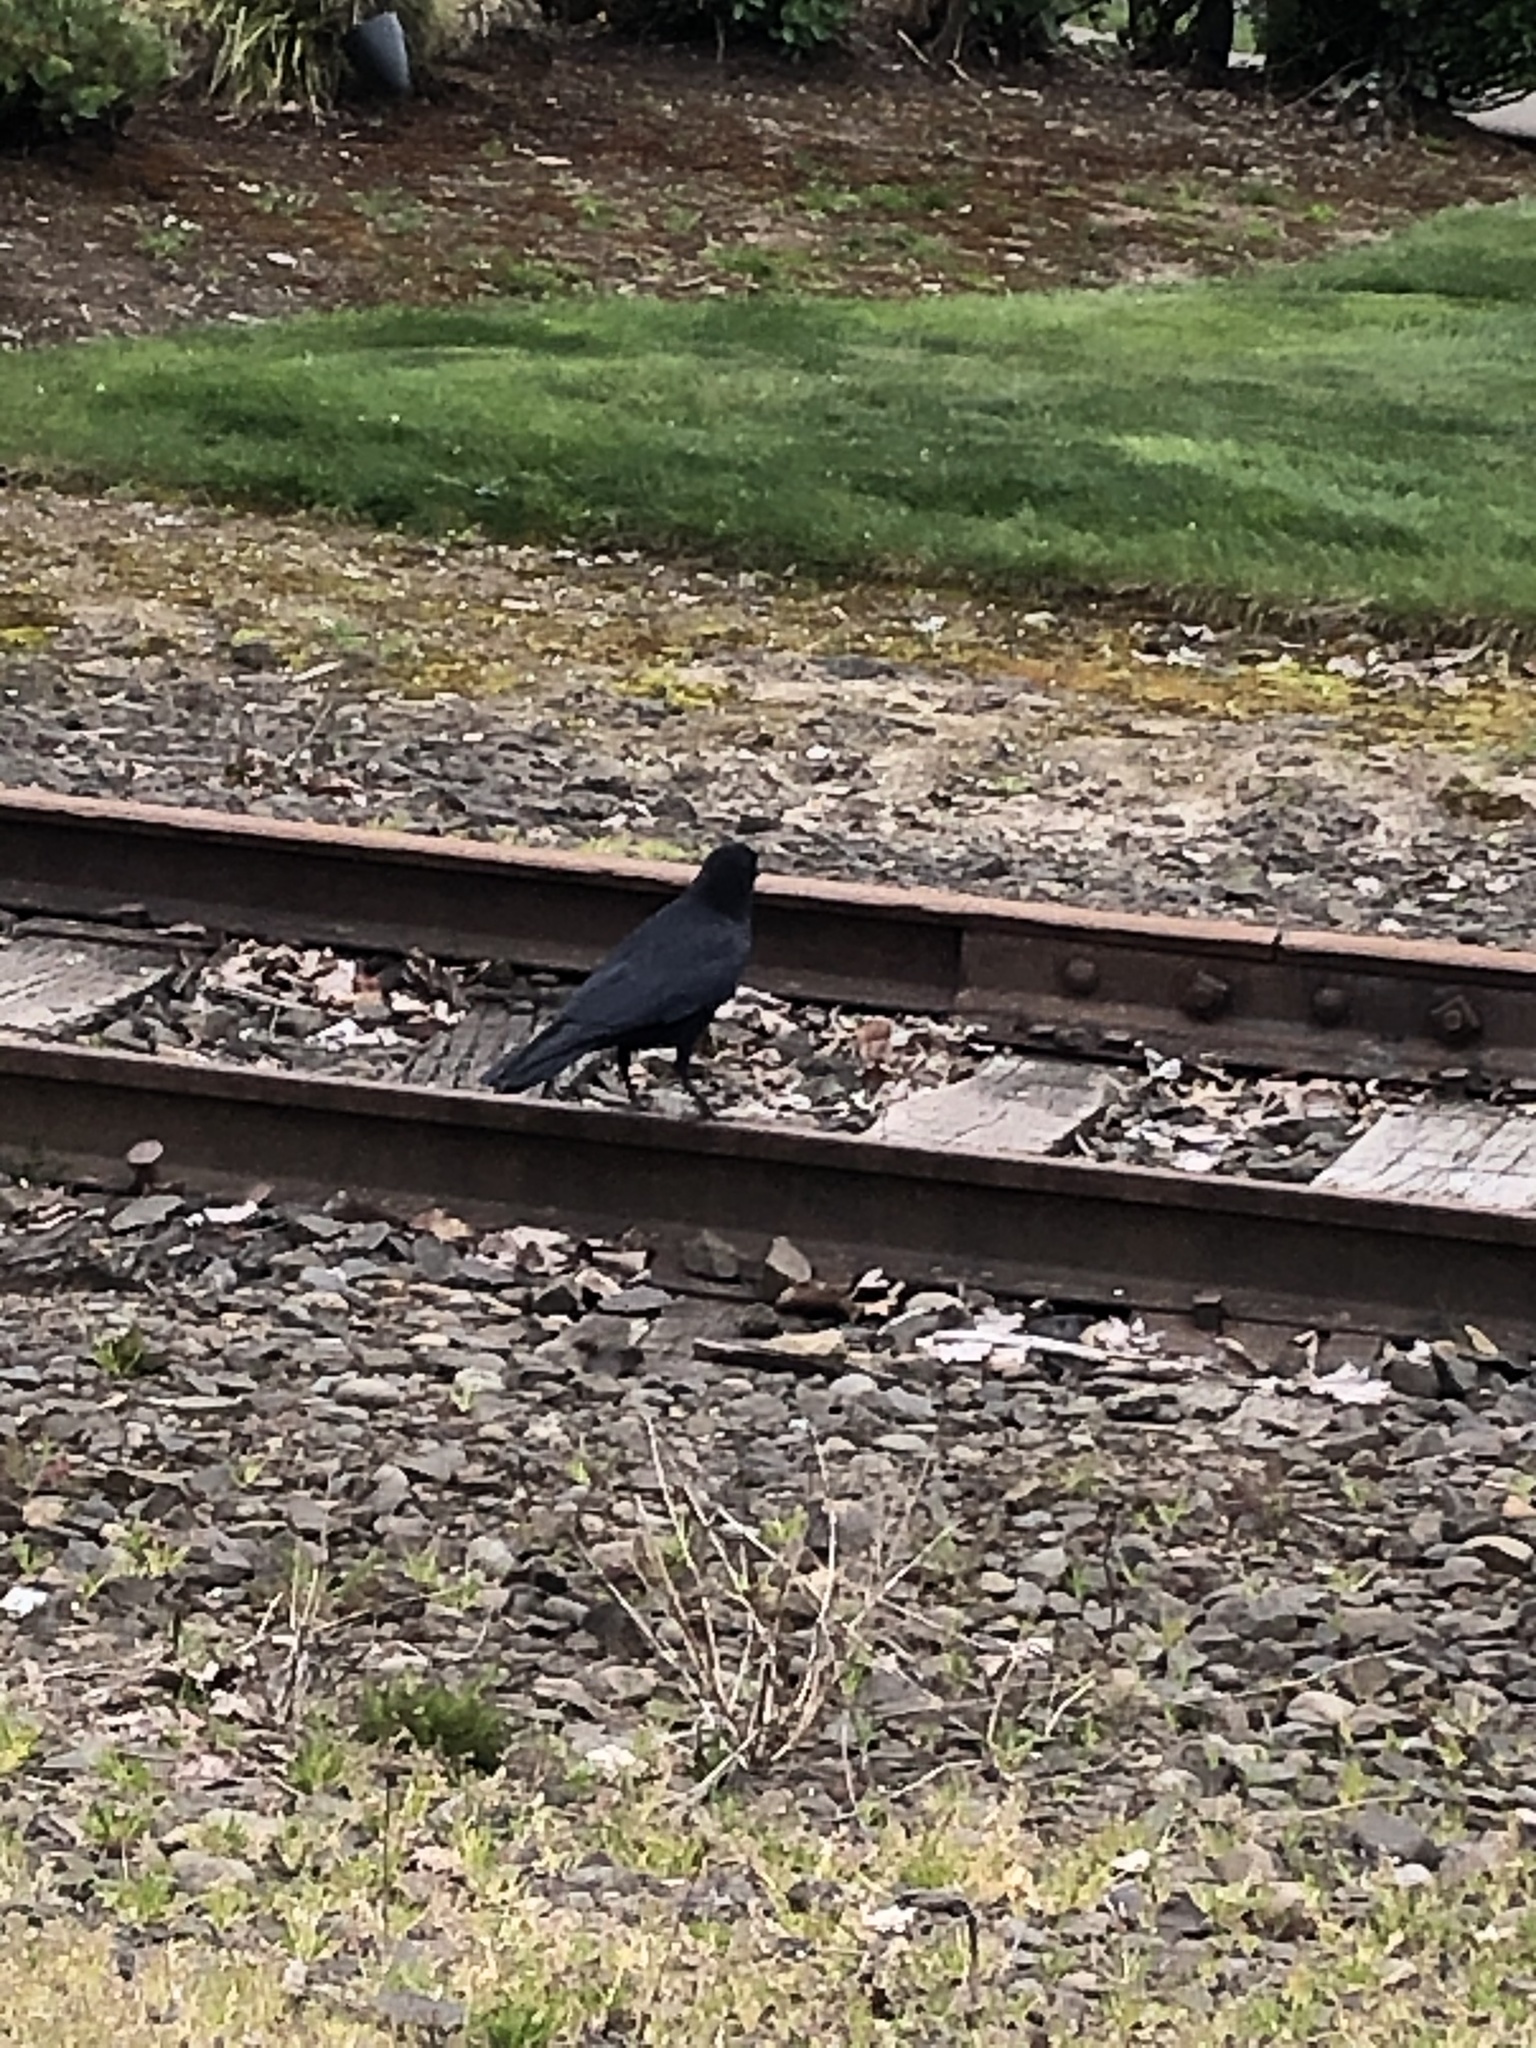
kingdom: Animalia
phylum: Chordata
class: Aves
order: Passeriformes
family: Corvidae
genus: Corvus
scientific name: Corvus brachyrhynchos
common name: American crow
